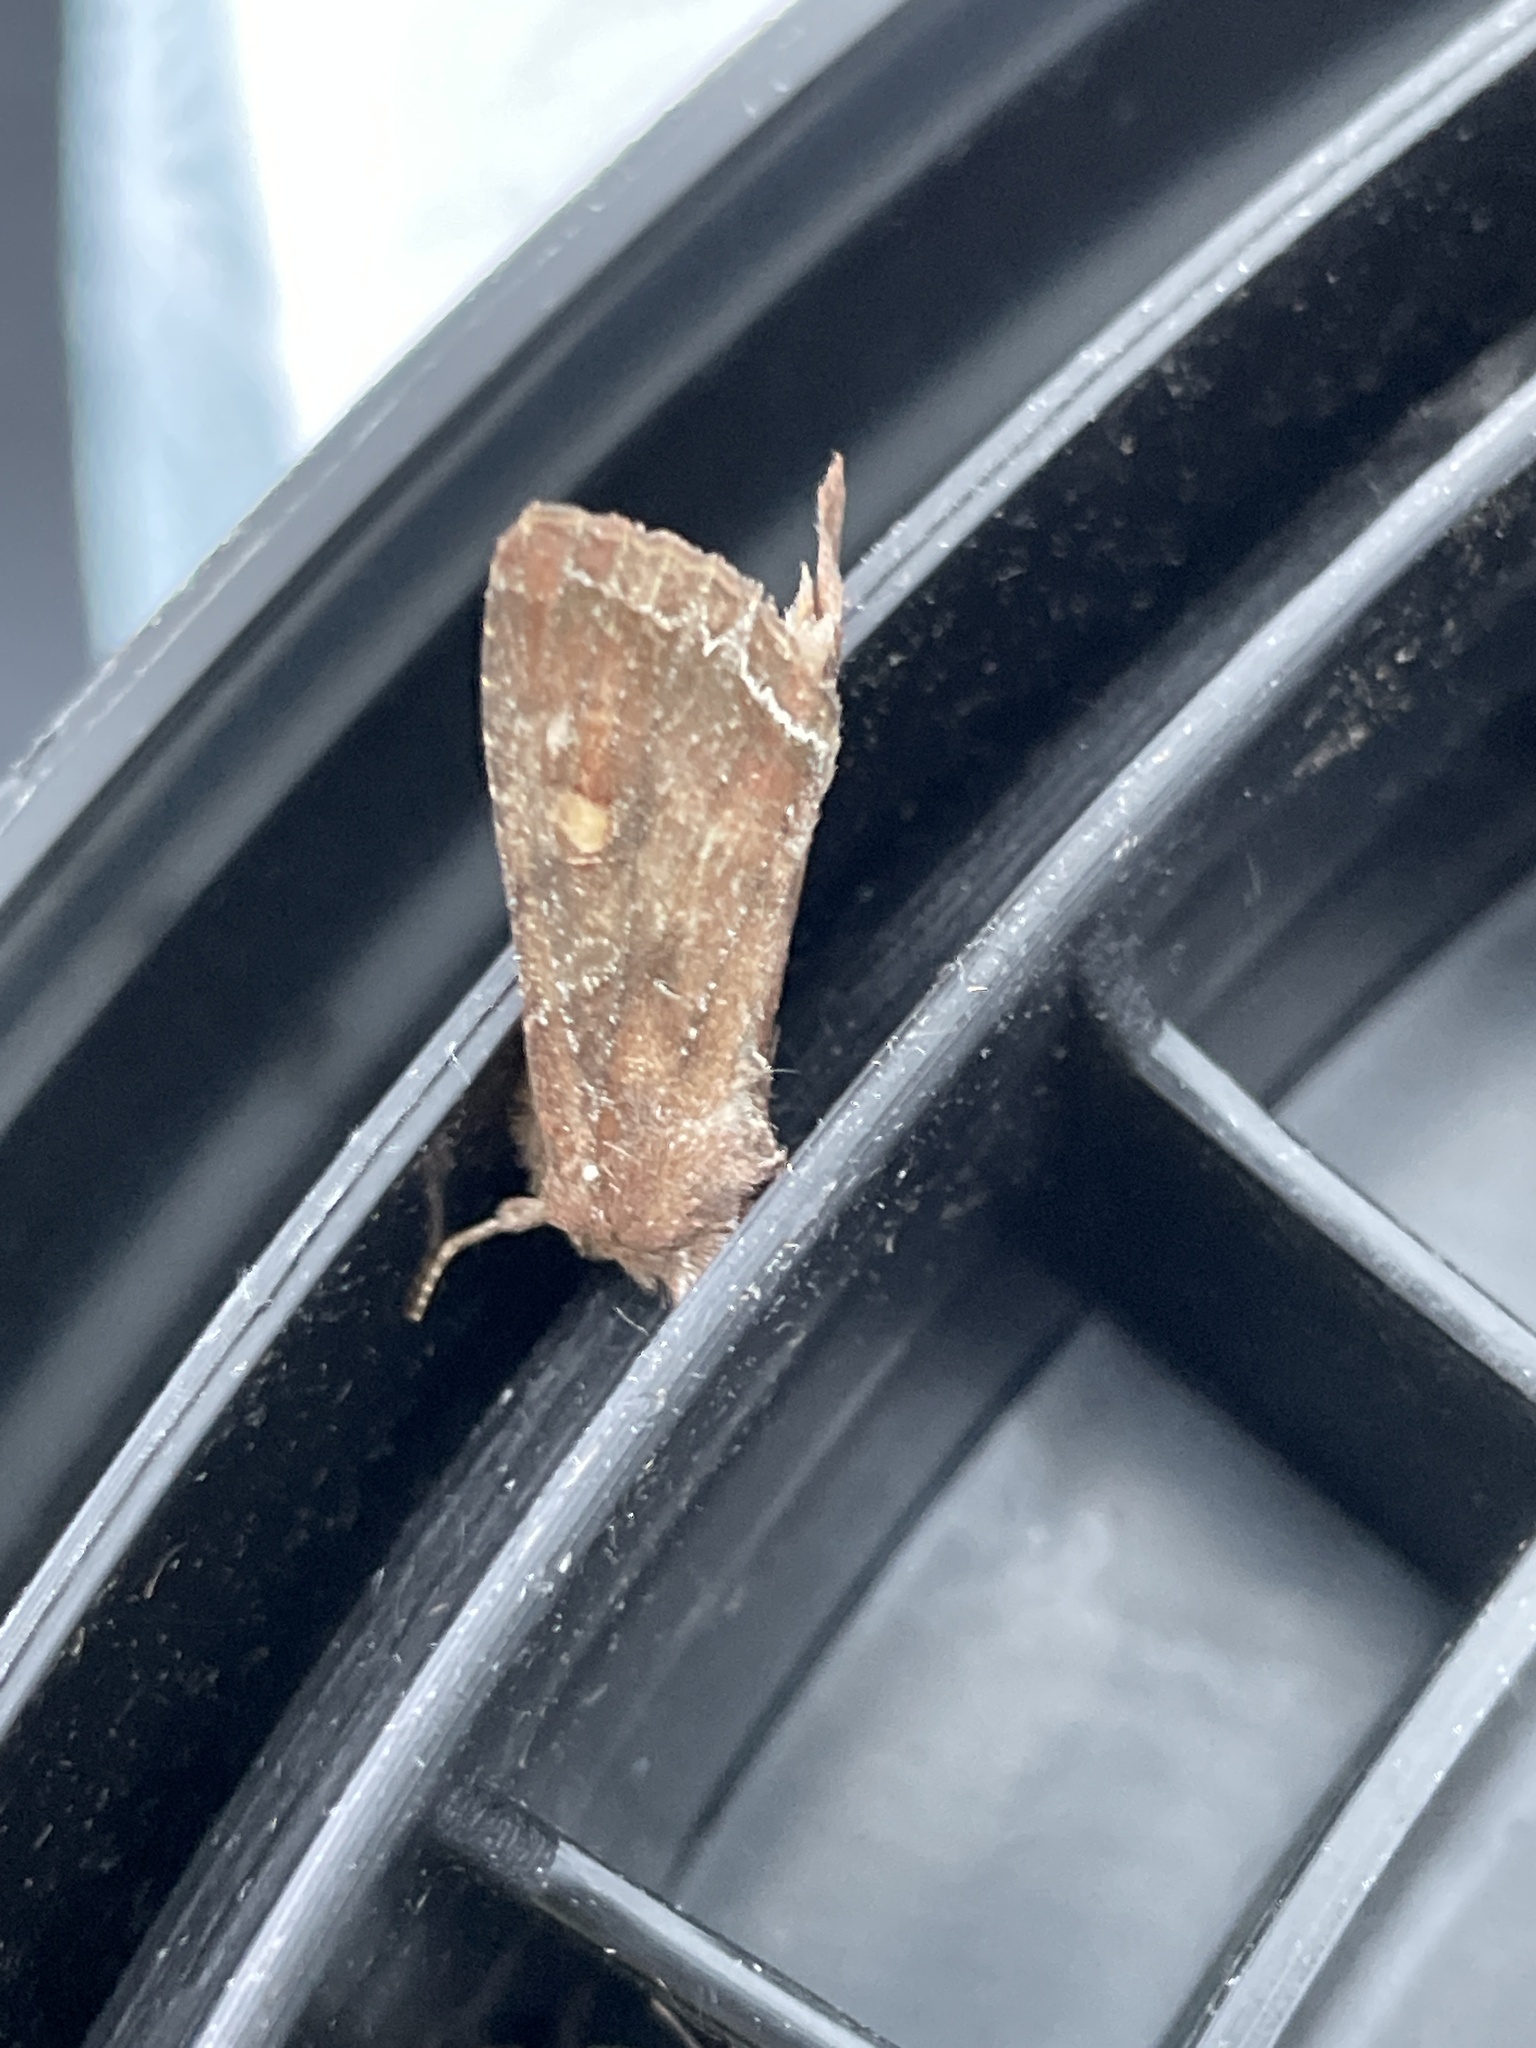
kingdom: Animalia
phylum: Arthropoda
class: Insecta
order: Lepidoptera
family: Noctuidae
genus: Lacanobia
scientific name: Lacanobia oleracea
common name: Bright-line brown-eye
